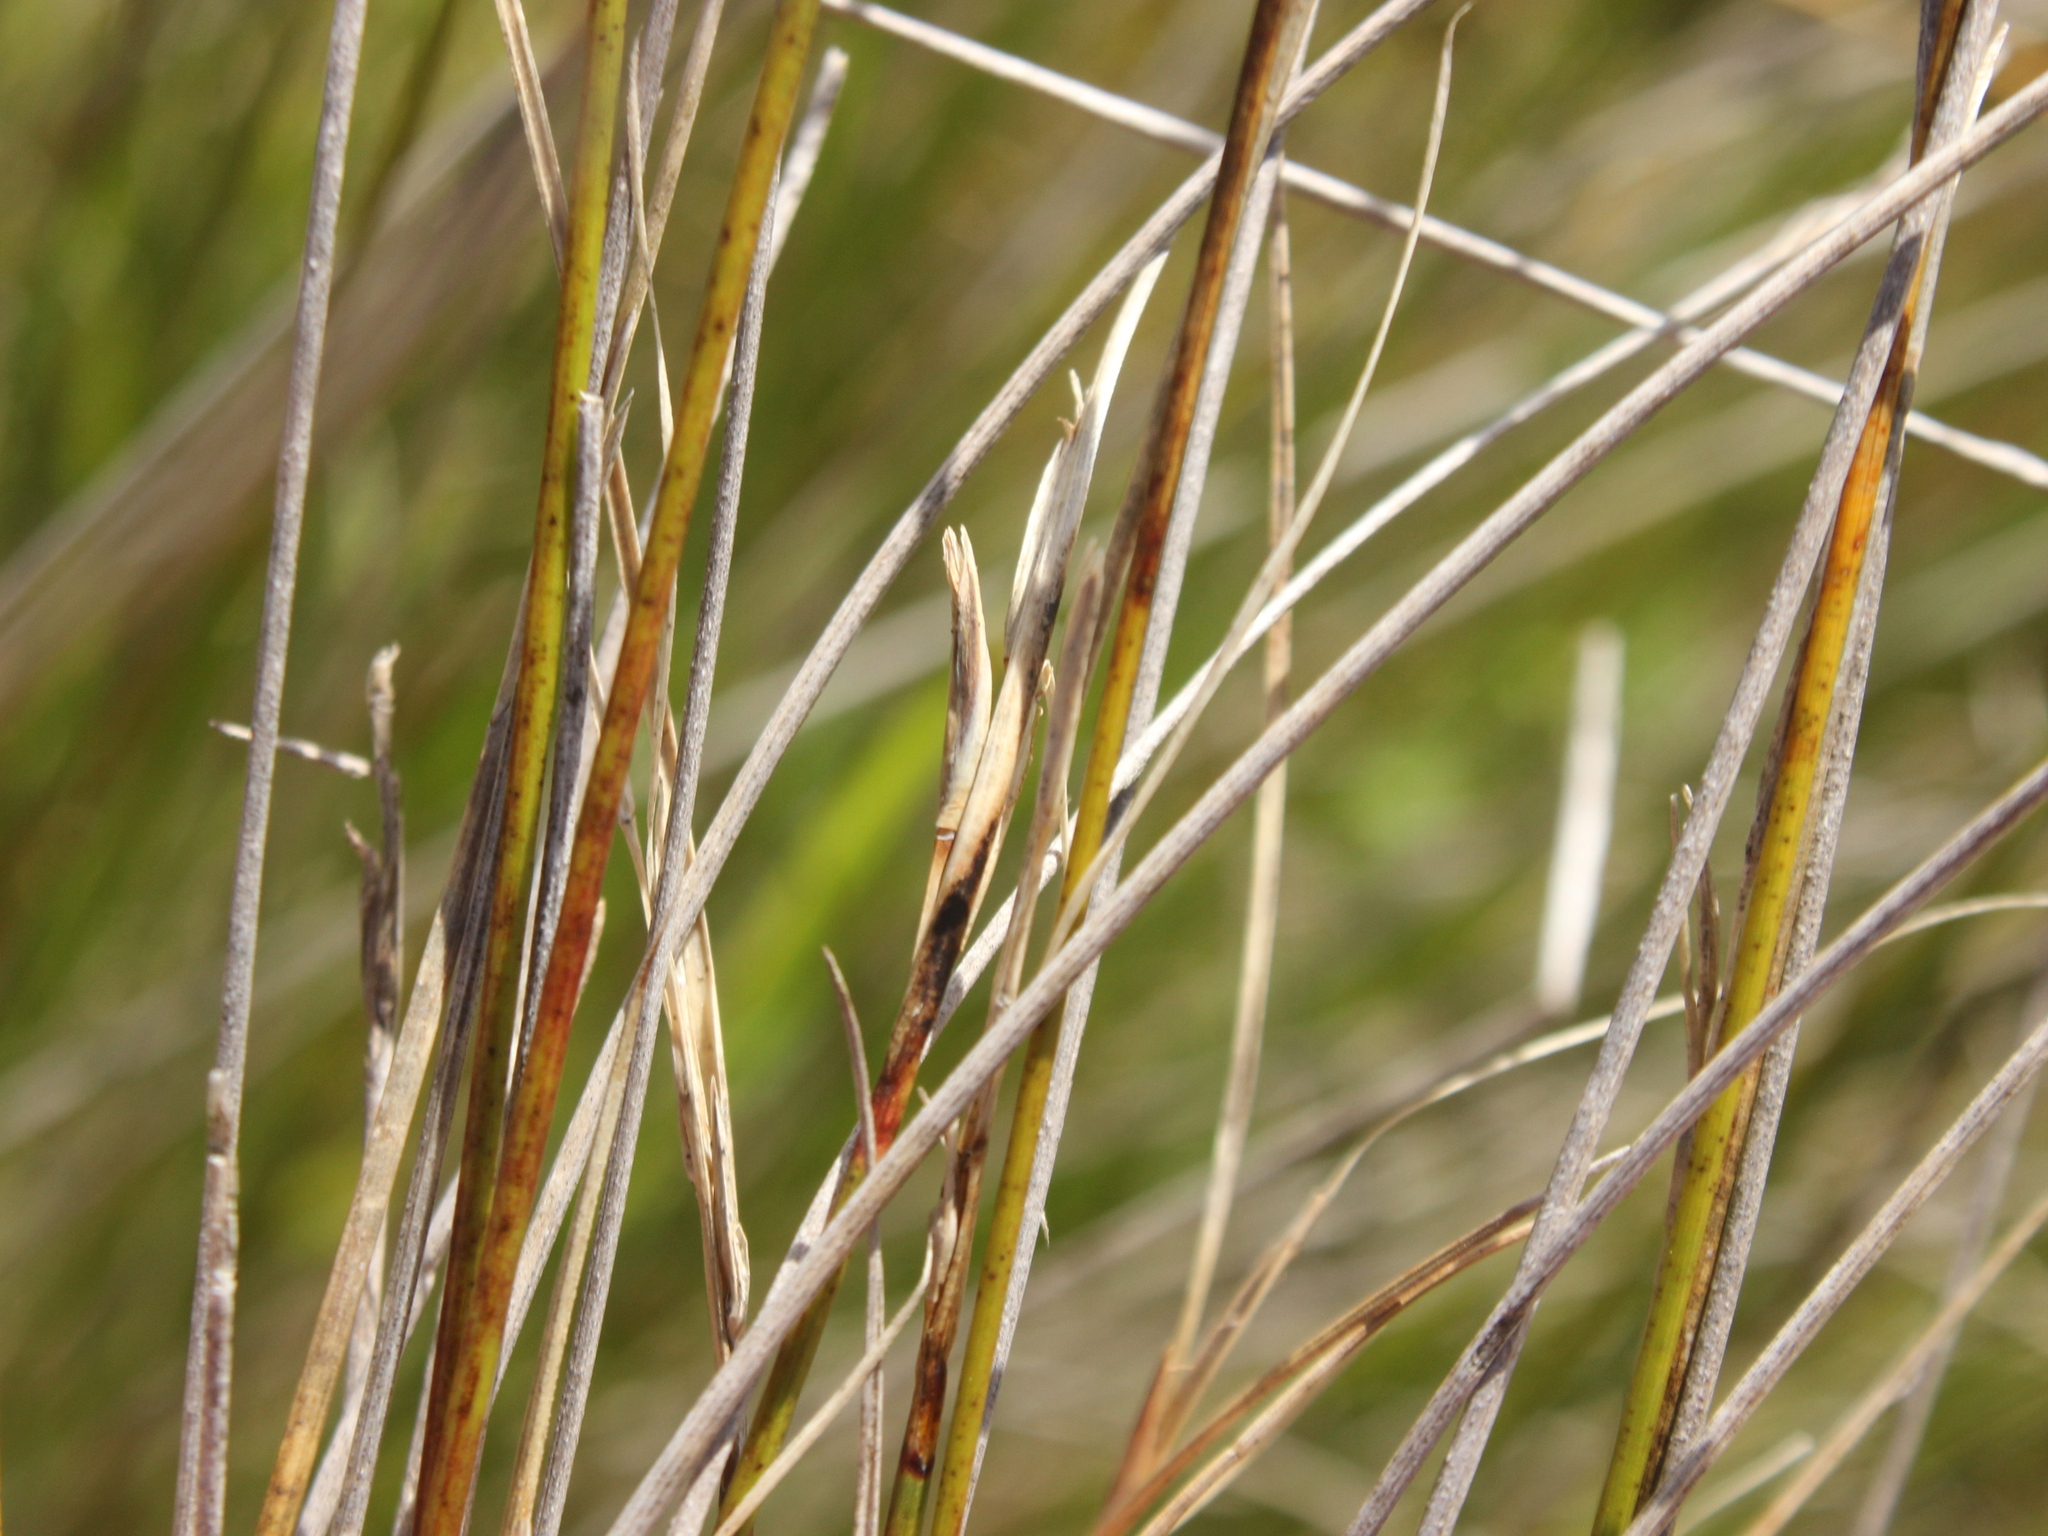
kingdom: Plantae
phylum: Tracheophyta
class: Liliopsida
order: Poales
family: Cyperaceae
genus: Schoenus
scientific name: Schoenus pauciflorus
